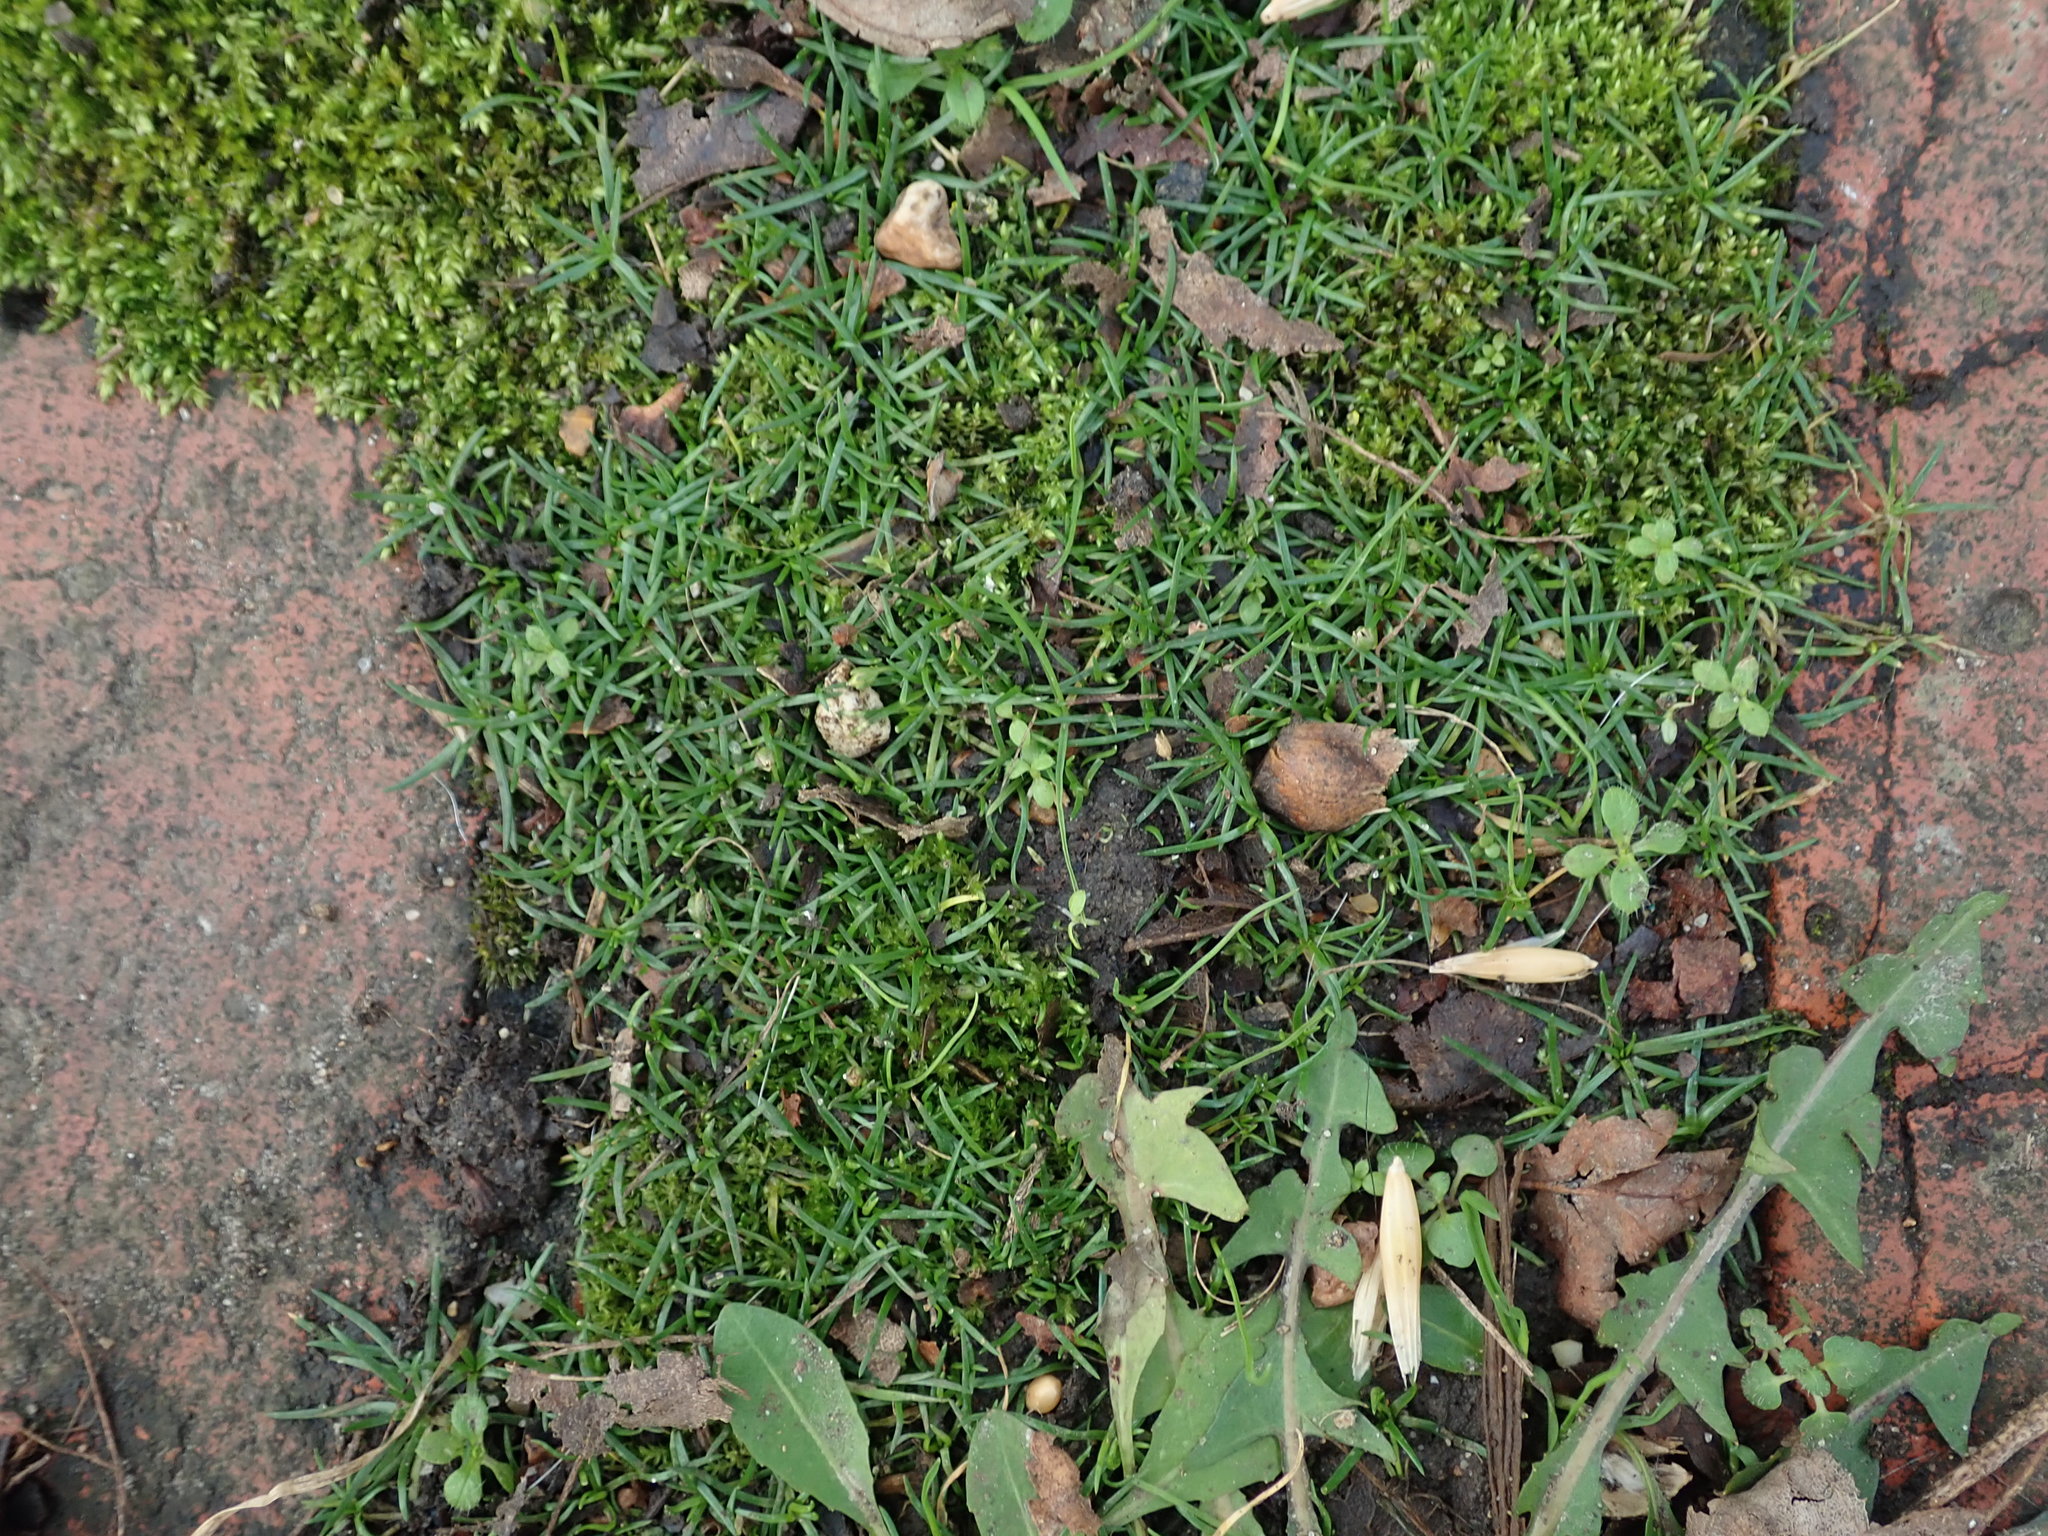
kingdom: Plantae
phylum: Tracheophyta
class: Magnoliopsida
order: Caryophyllales
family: Caryophyllaceae
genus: Sagina
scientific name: Sagina procumbens
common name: Procumbent pearlwort
